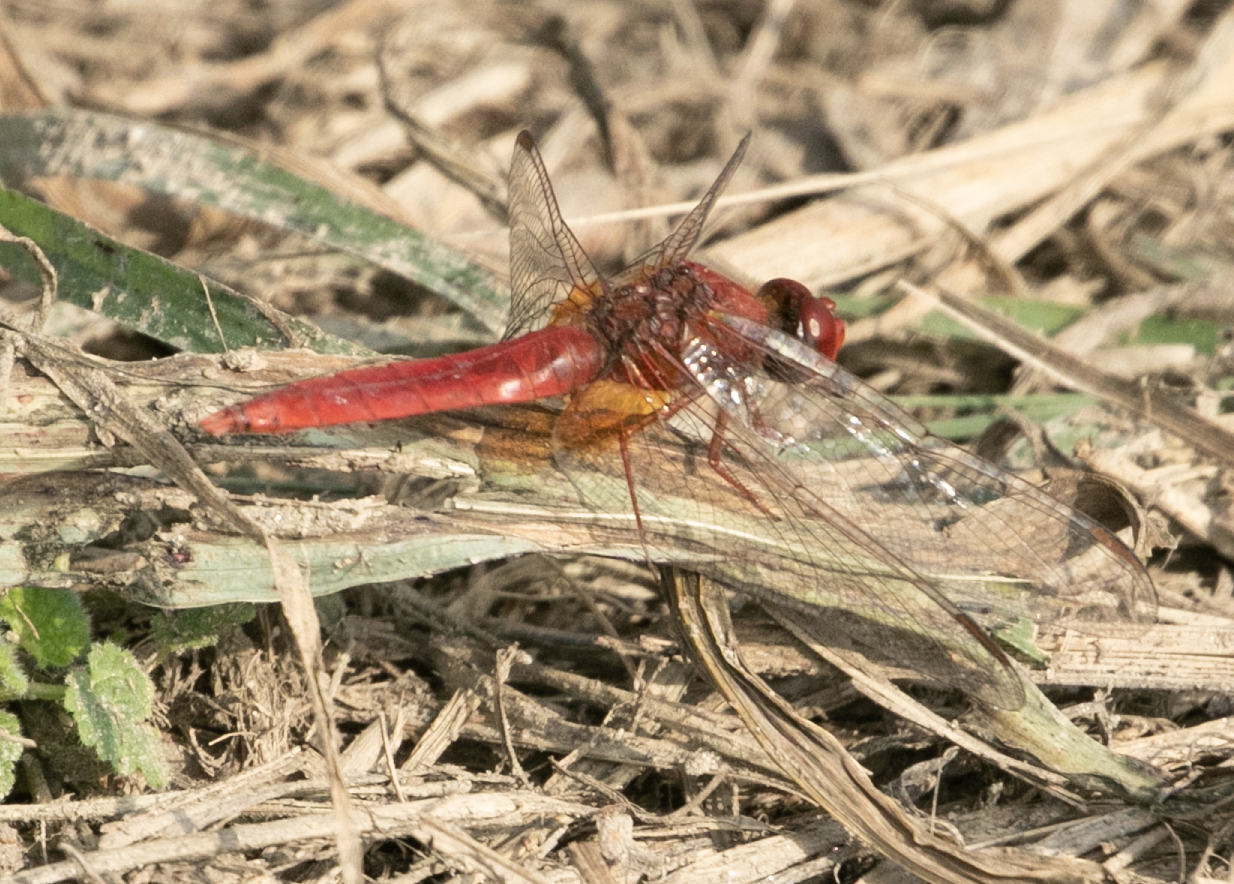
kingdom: Animalia
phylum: Arthropoda
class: Insecta
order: Odonata
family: Libellulidae
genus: Crocothemis
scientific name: Crocothemis erythraea
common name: Scarlet dragonfly
